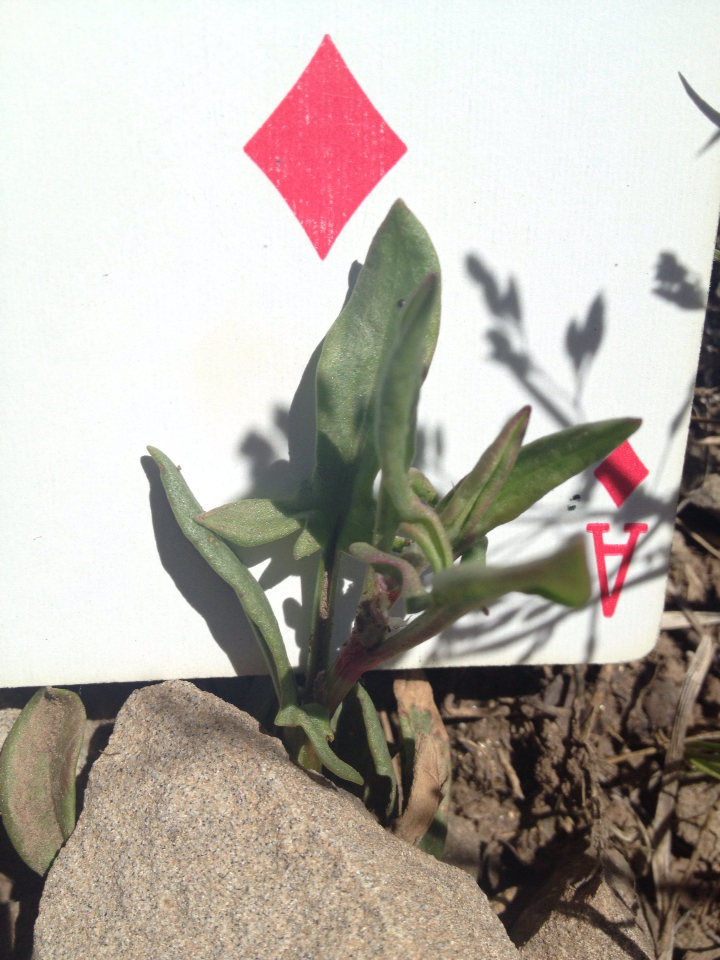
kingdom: Plantae
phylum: Tracheophyta
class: Magnoliopsida
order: Caryophyllales
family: Polygonaceae
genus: Rumex
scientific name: Rumex acetosella
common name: Common sheep sorrel
